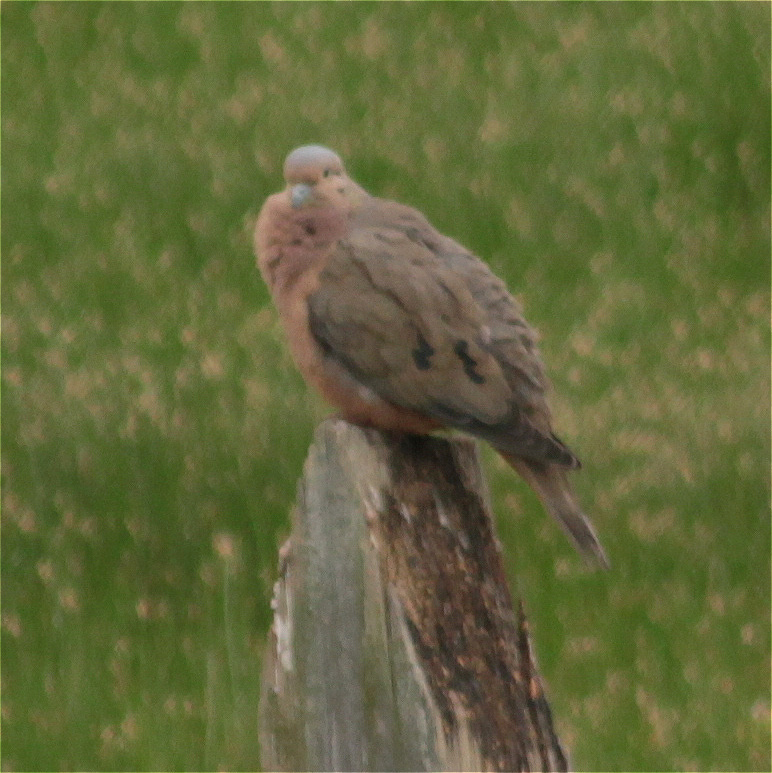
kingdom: Animalia
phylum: Chordata
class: Aves
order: Columbiformes
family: Columbidae
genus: Zenaida
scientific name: Zenaida auriculata
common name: Eared dove
